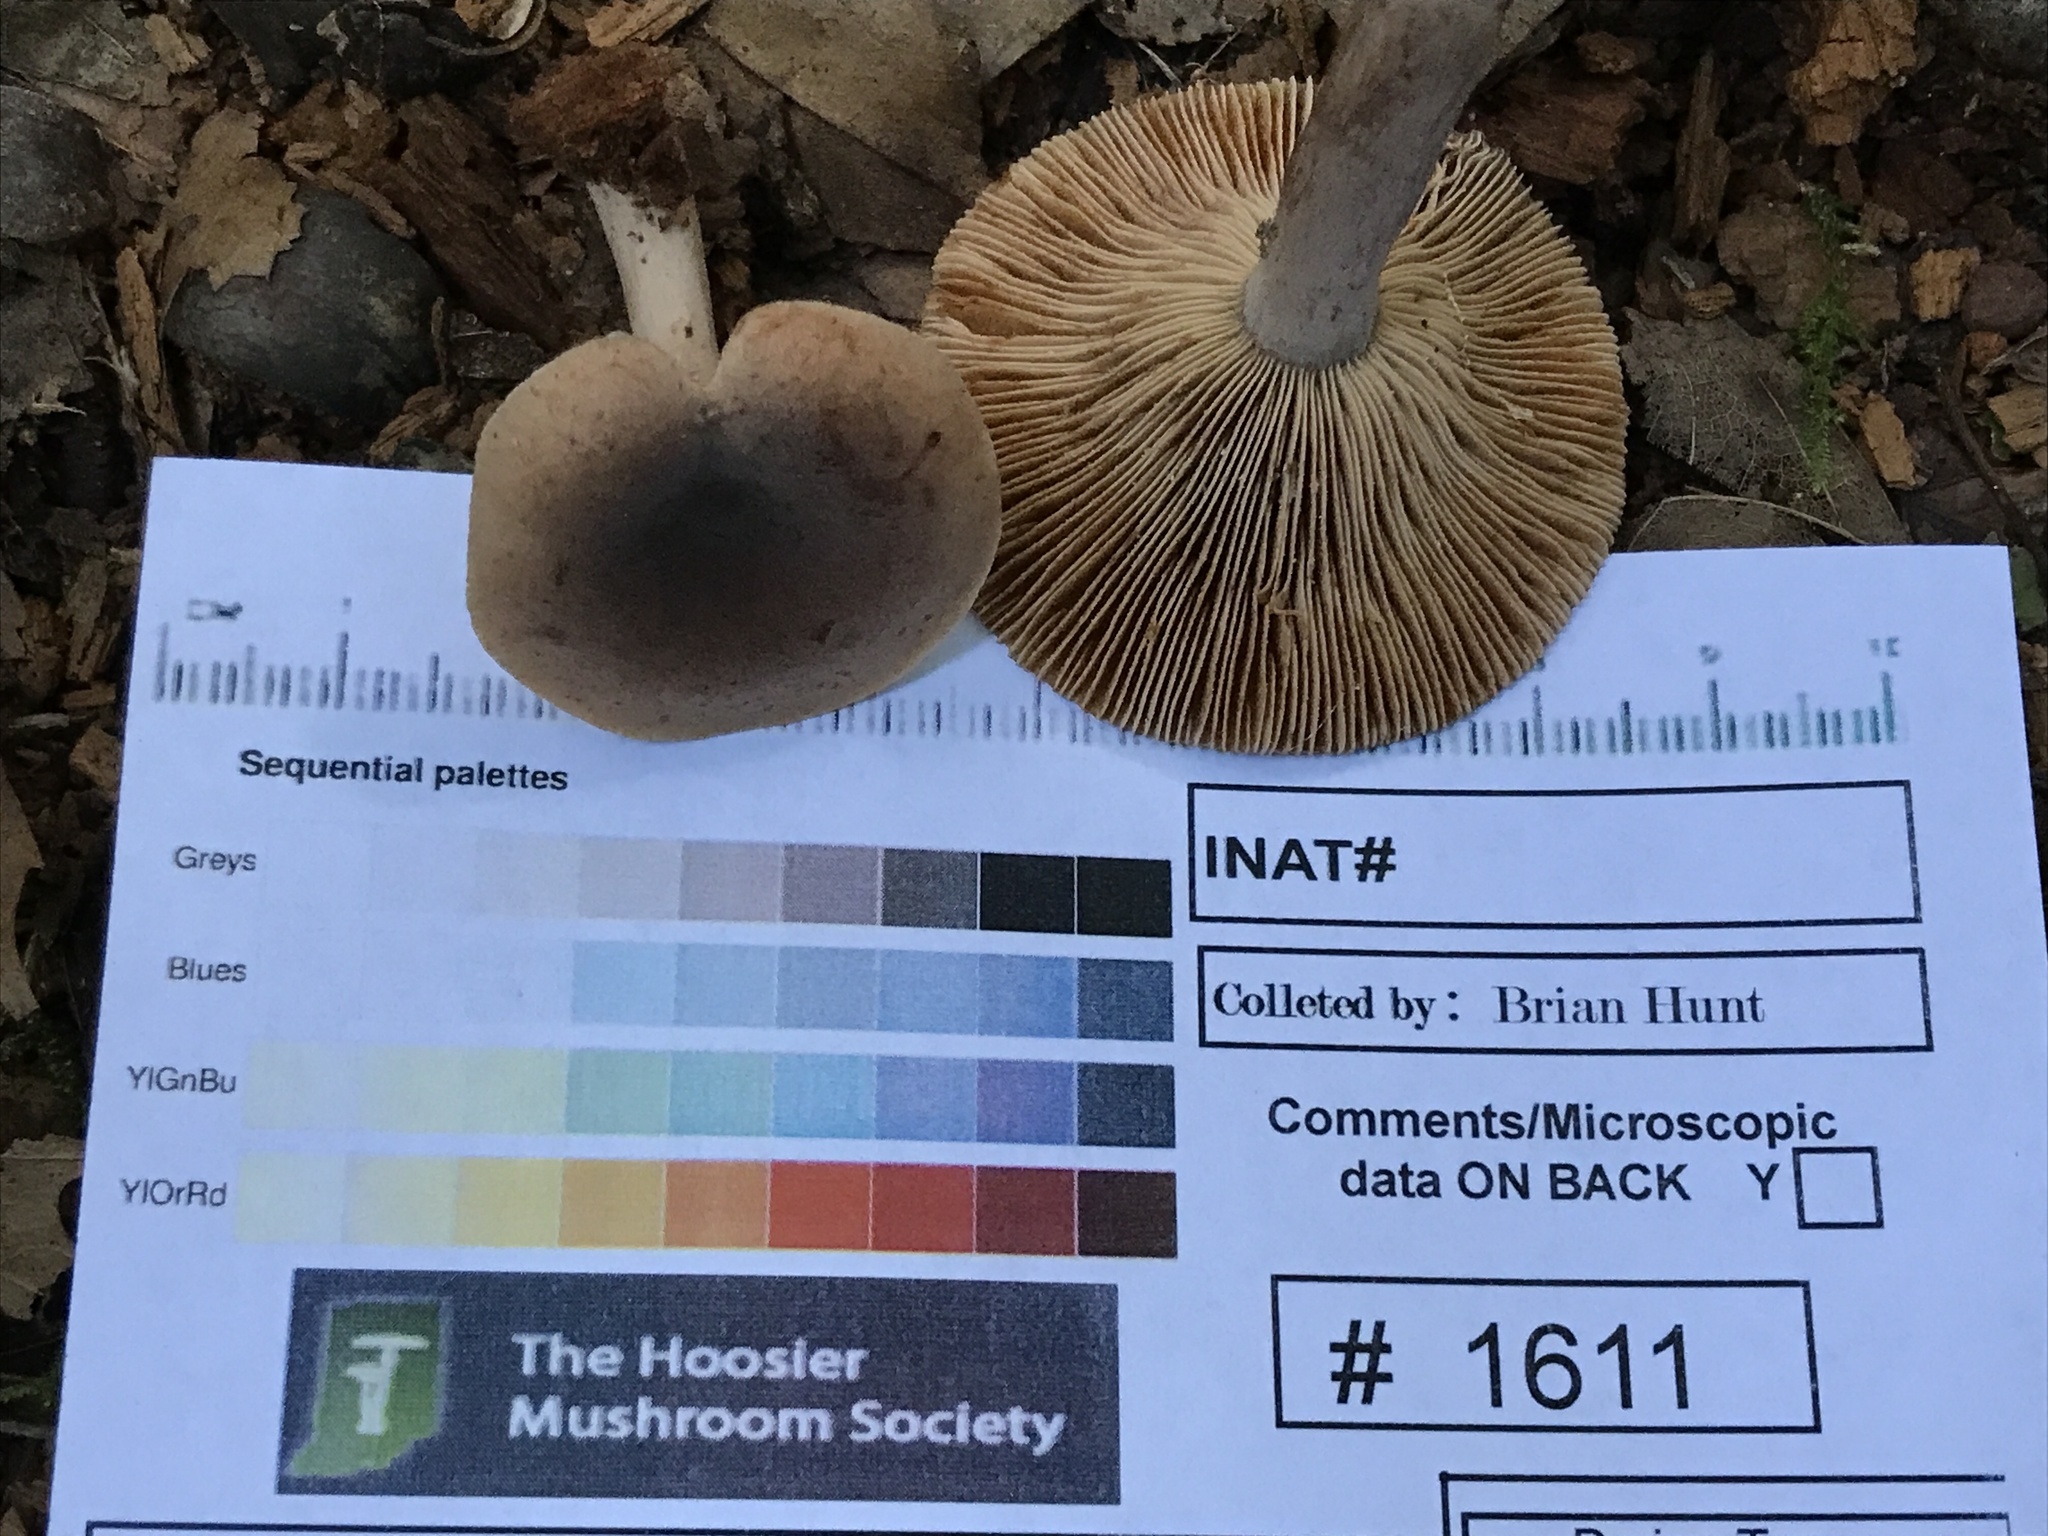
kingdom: Fungi
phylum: Basidiomycota
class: Agaricomycetes
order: Russulales
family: Russulaceae
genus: Lactarius
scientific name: Lactarius quietus
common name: Oak milk-cap
